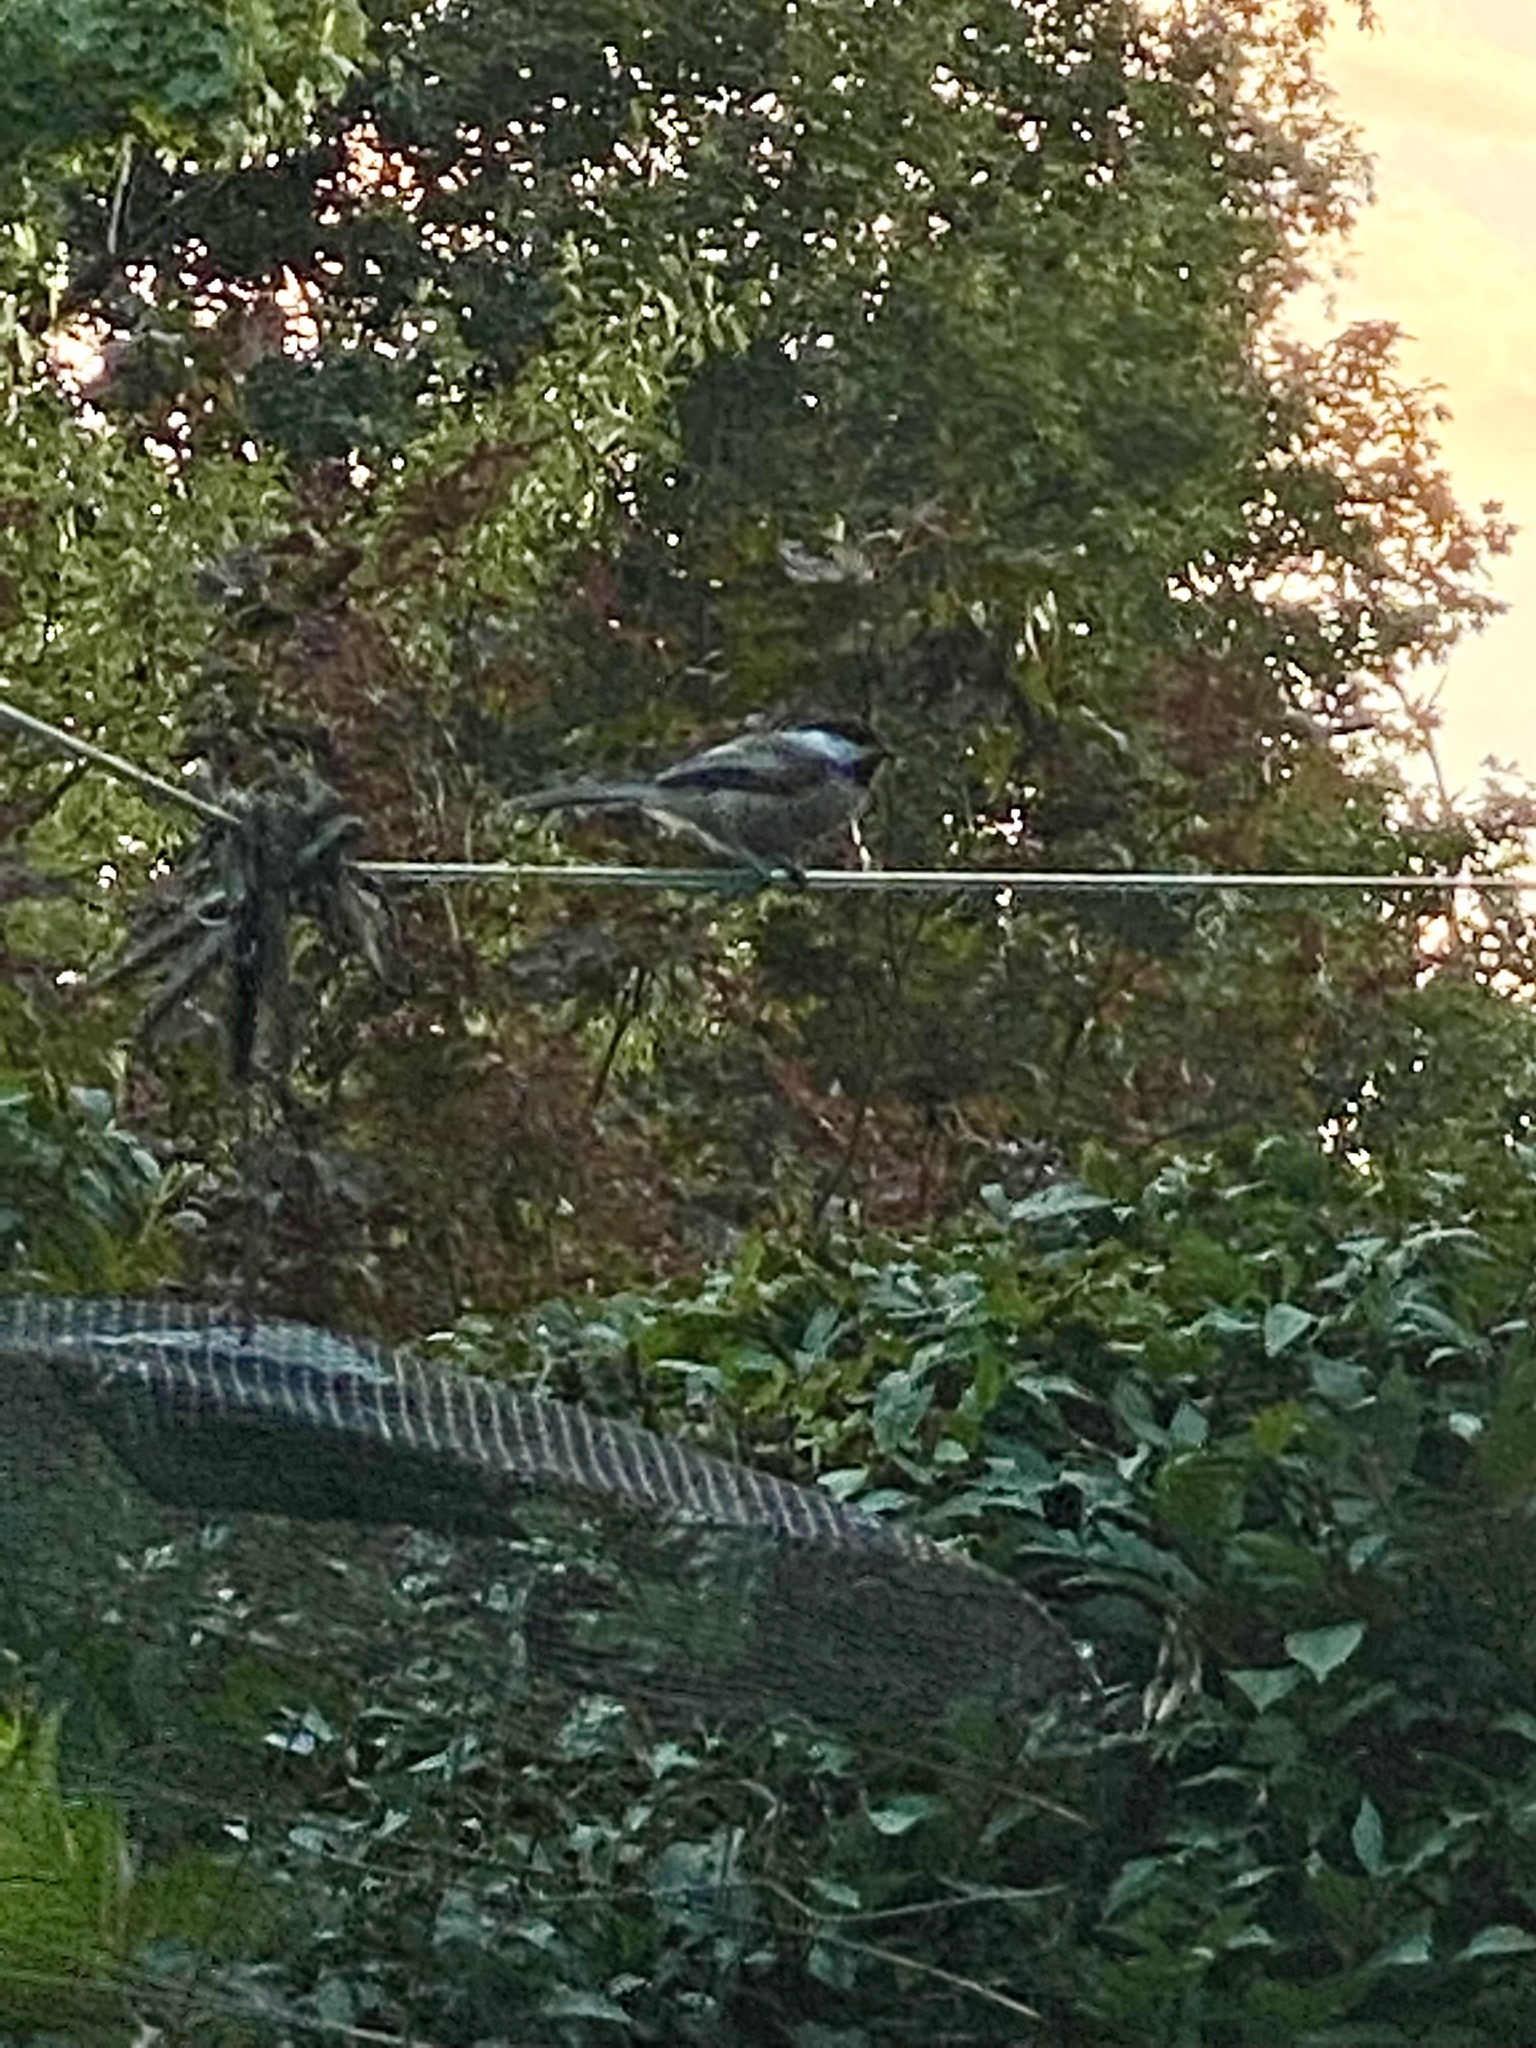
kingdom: Animalia
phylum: Chordata
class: Aves
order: Passeriformes
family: Paridae
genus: Poecile
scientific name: Poecile atricapillus
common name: Black-capped chickadee
